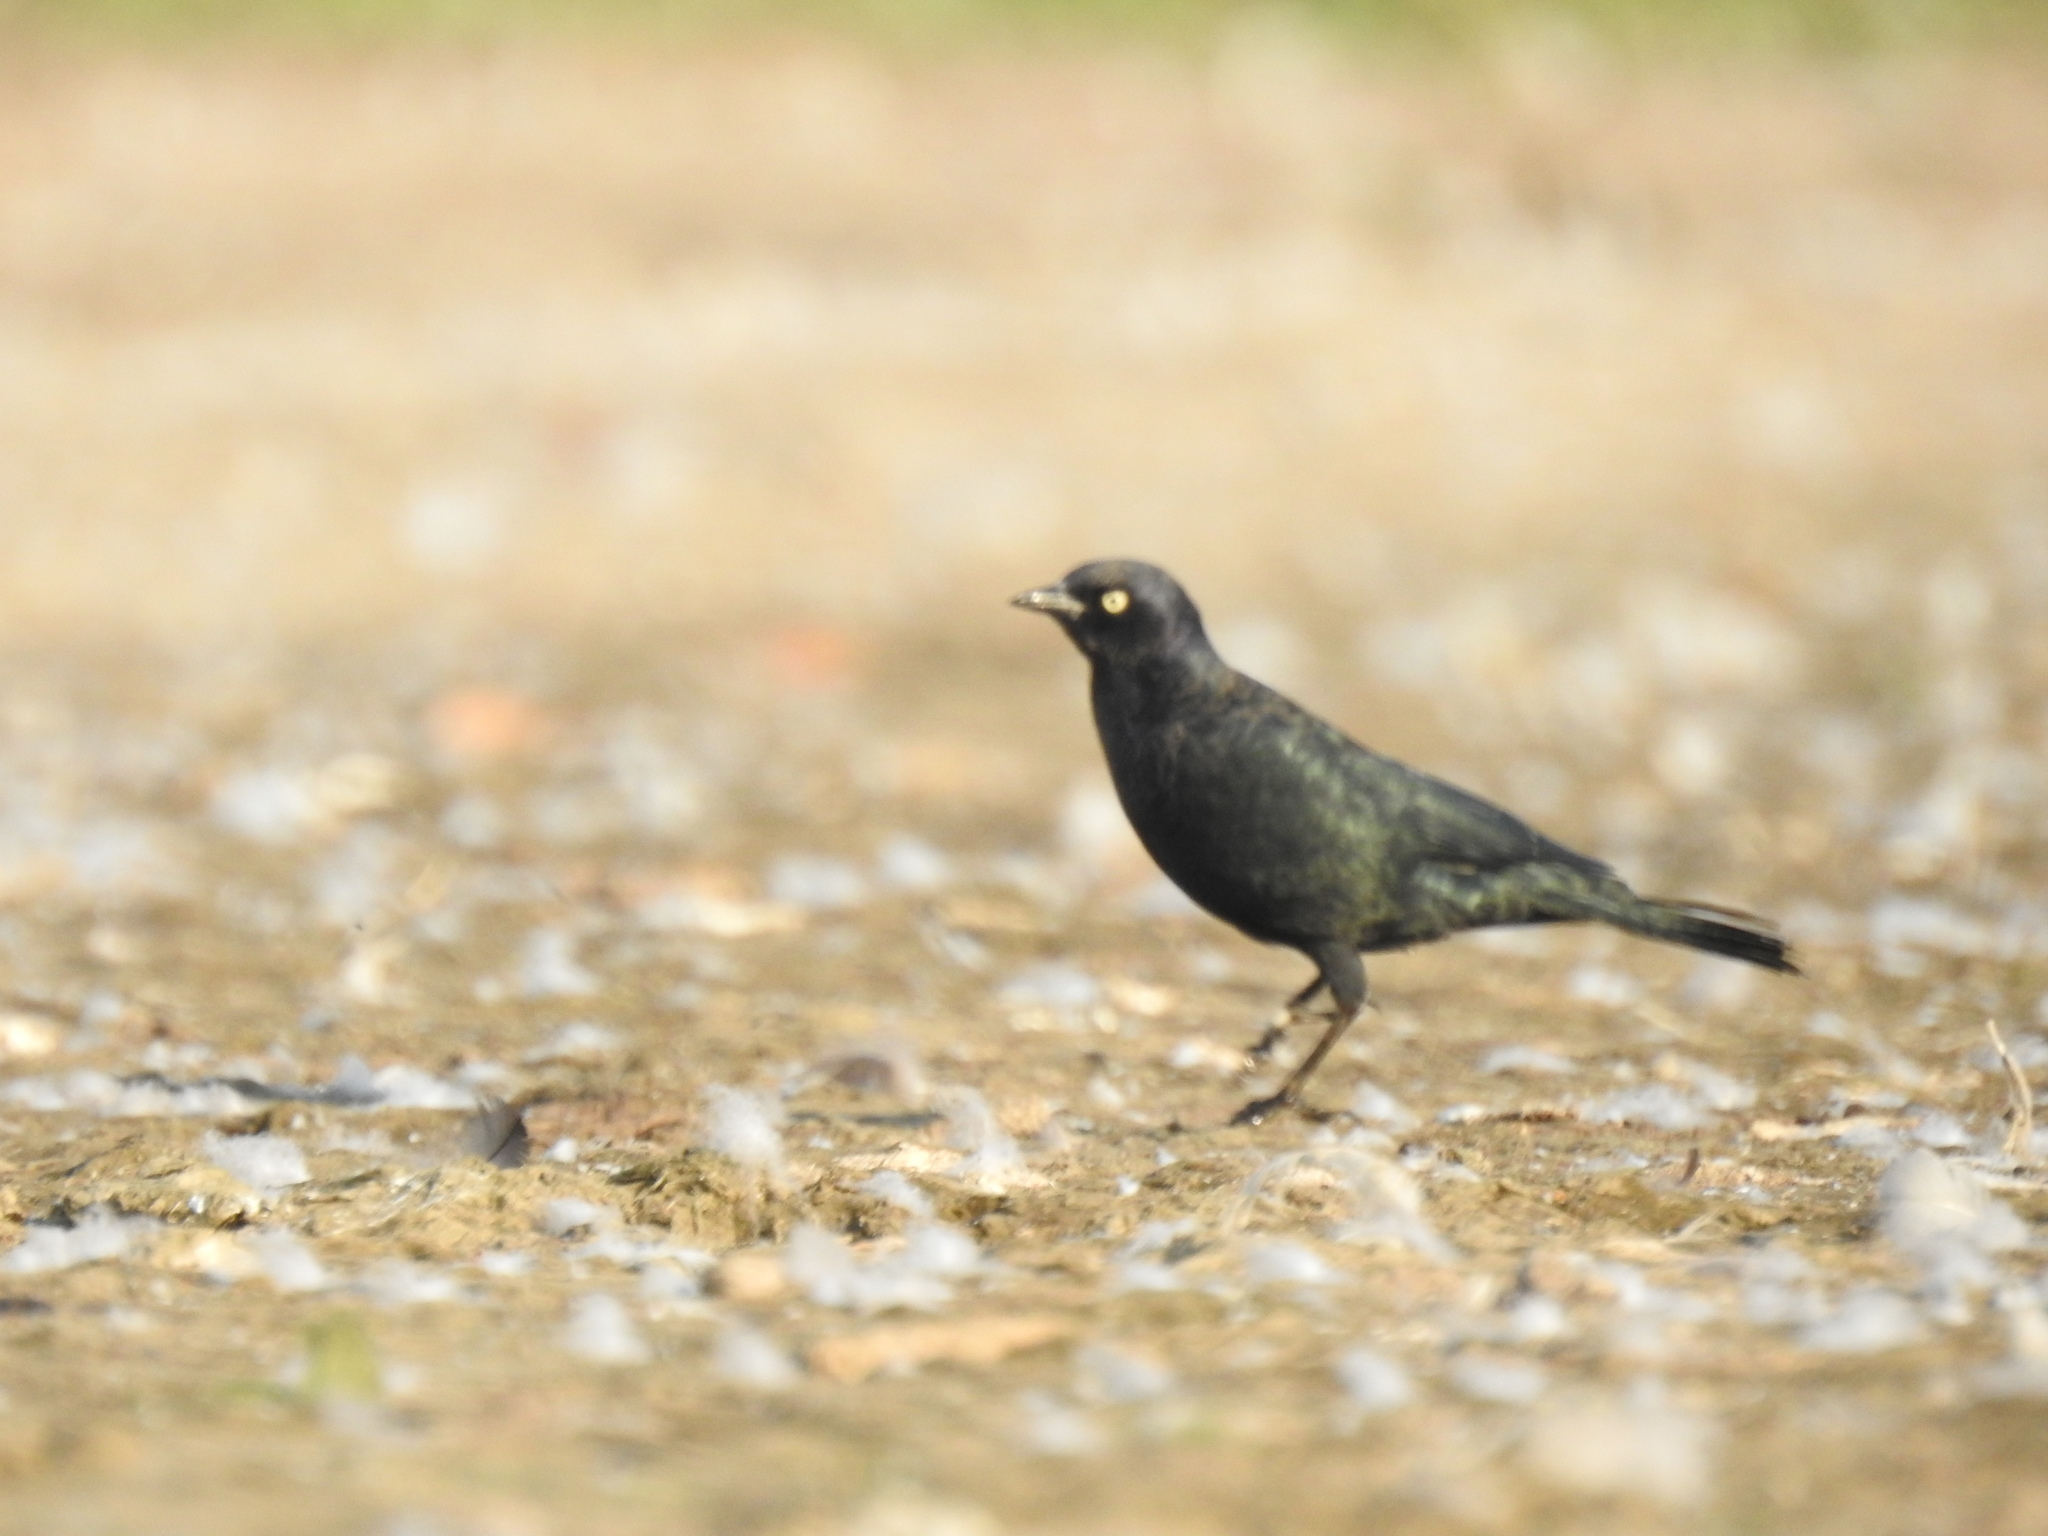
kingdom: Animalia
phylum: Chordata
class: Aves
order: Passeriformes
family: Icteridae
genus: Euphagus
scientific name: Euphagus cyanocephalus
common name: Brewer's blackbird
